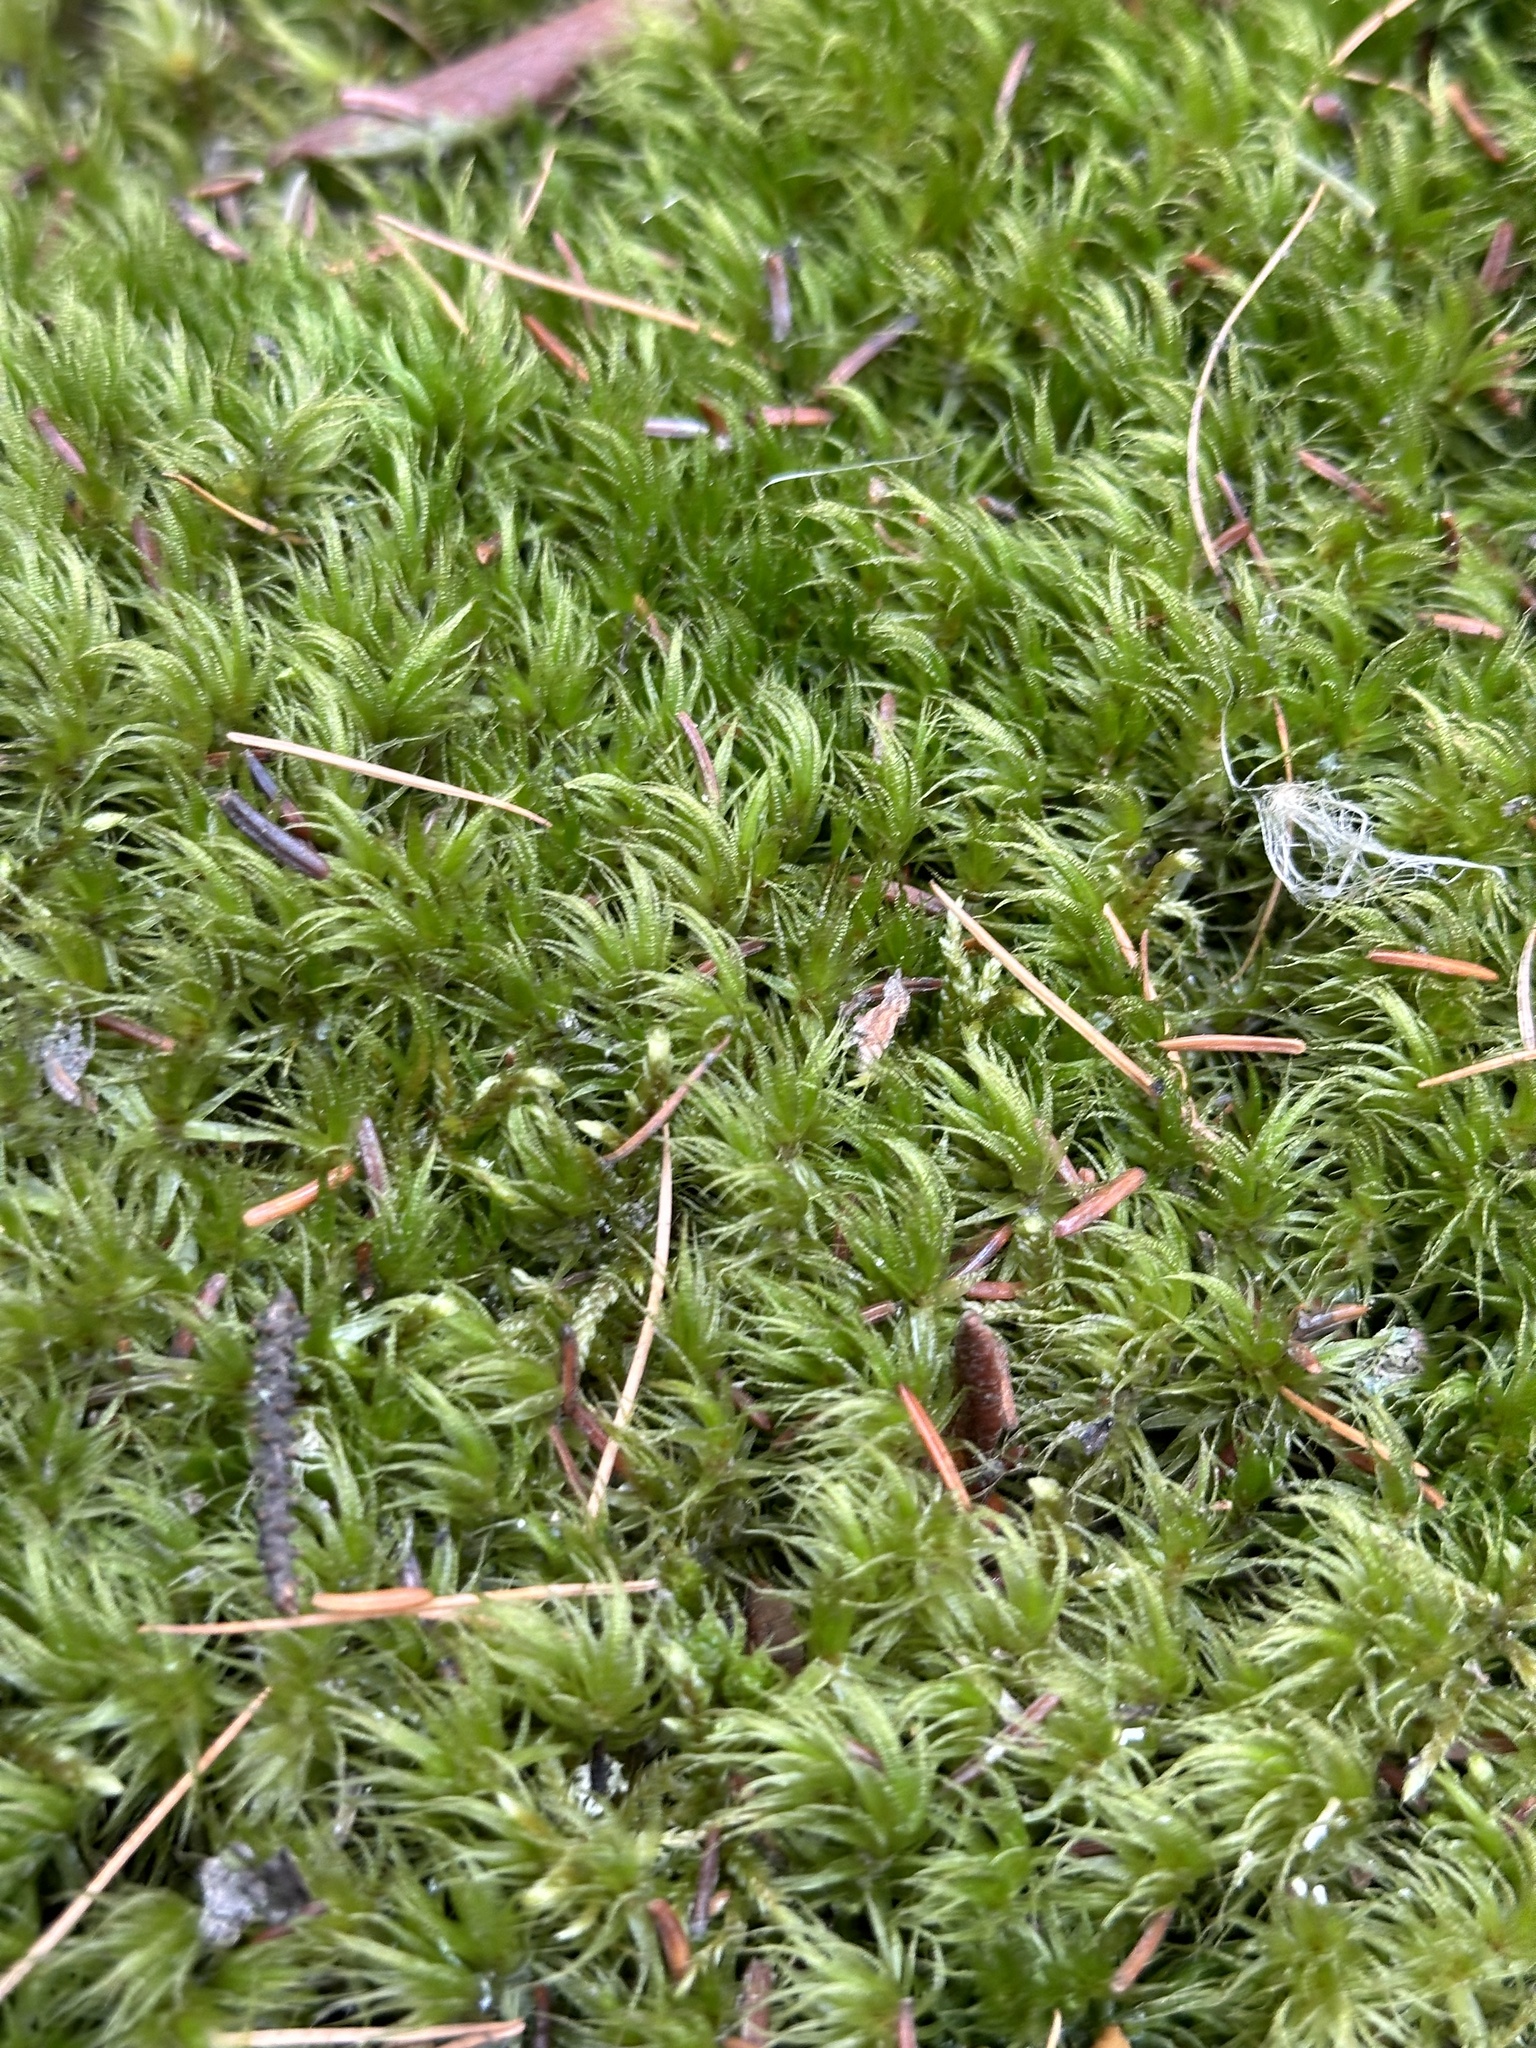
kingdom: Plantae
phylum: Bryophyta
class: Bryopsida
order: Dicranales
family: Dicranaceae
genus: Dicranum
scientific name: Dicranum polysetum
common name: Rugose fork-moss
